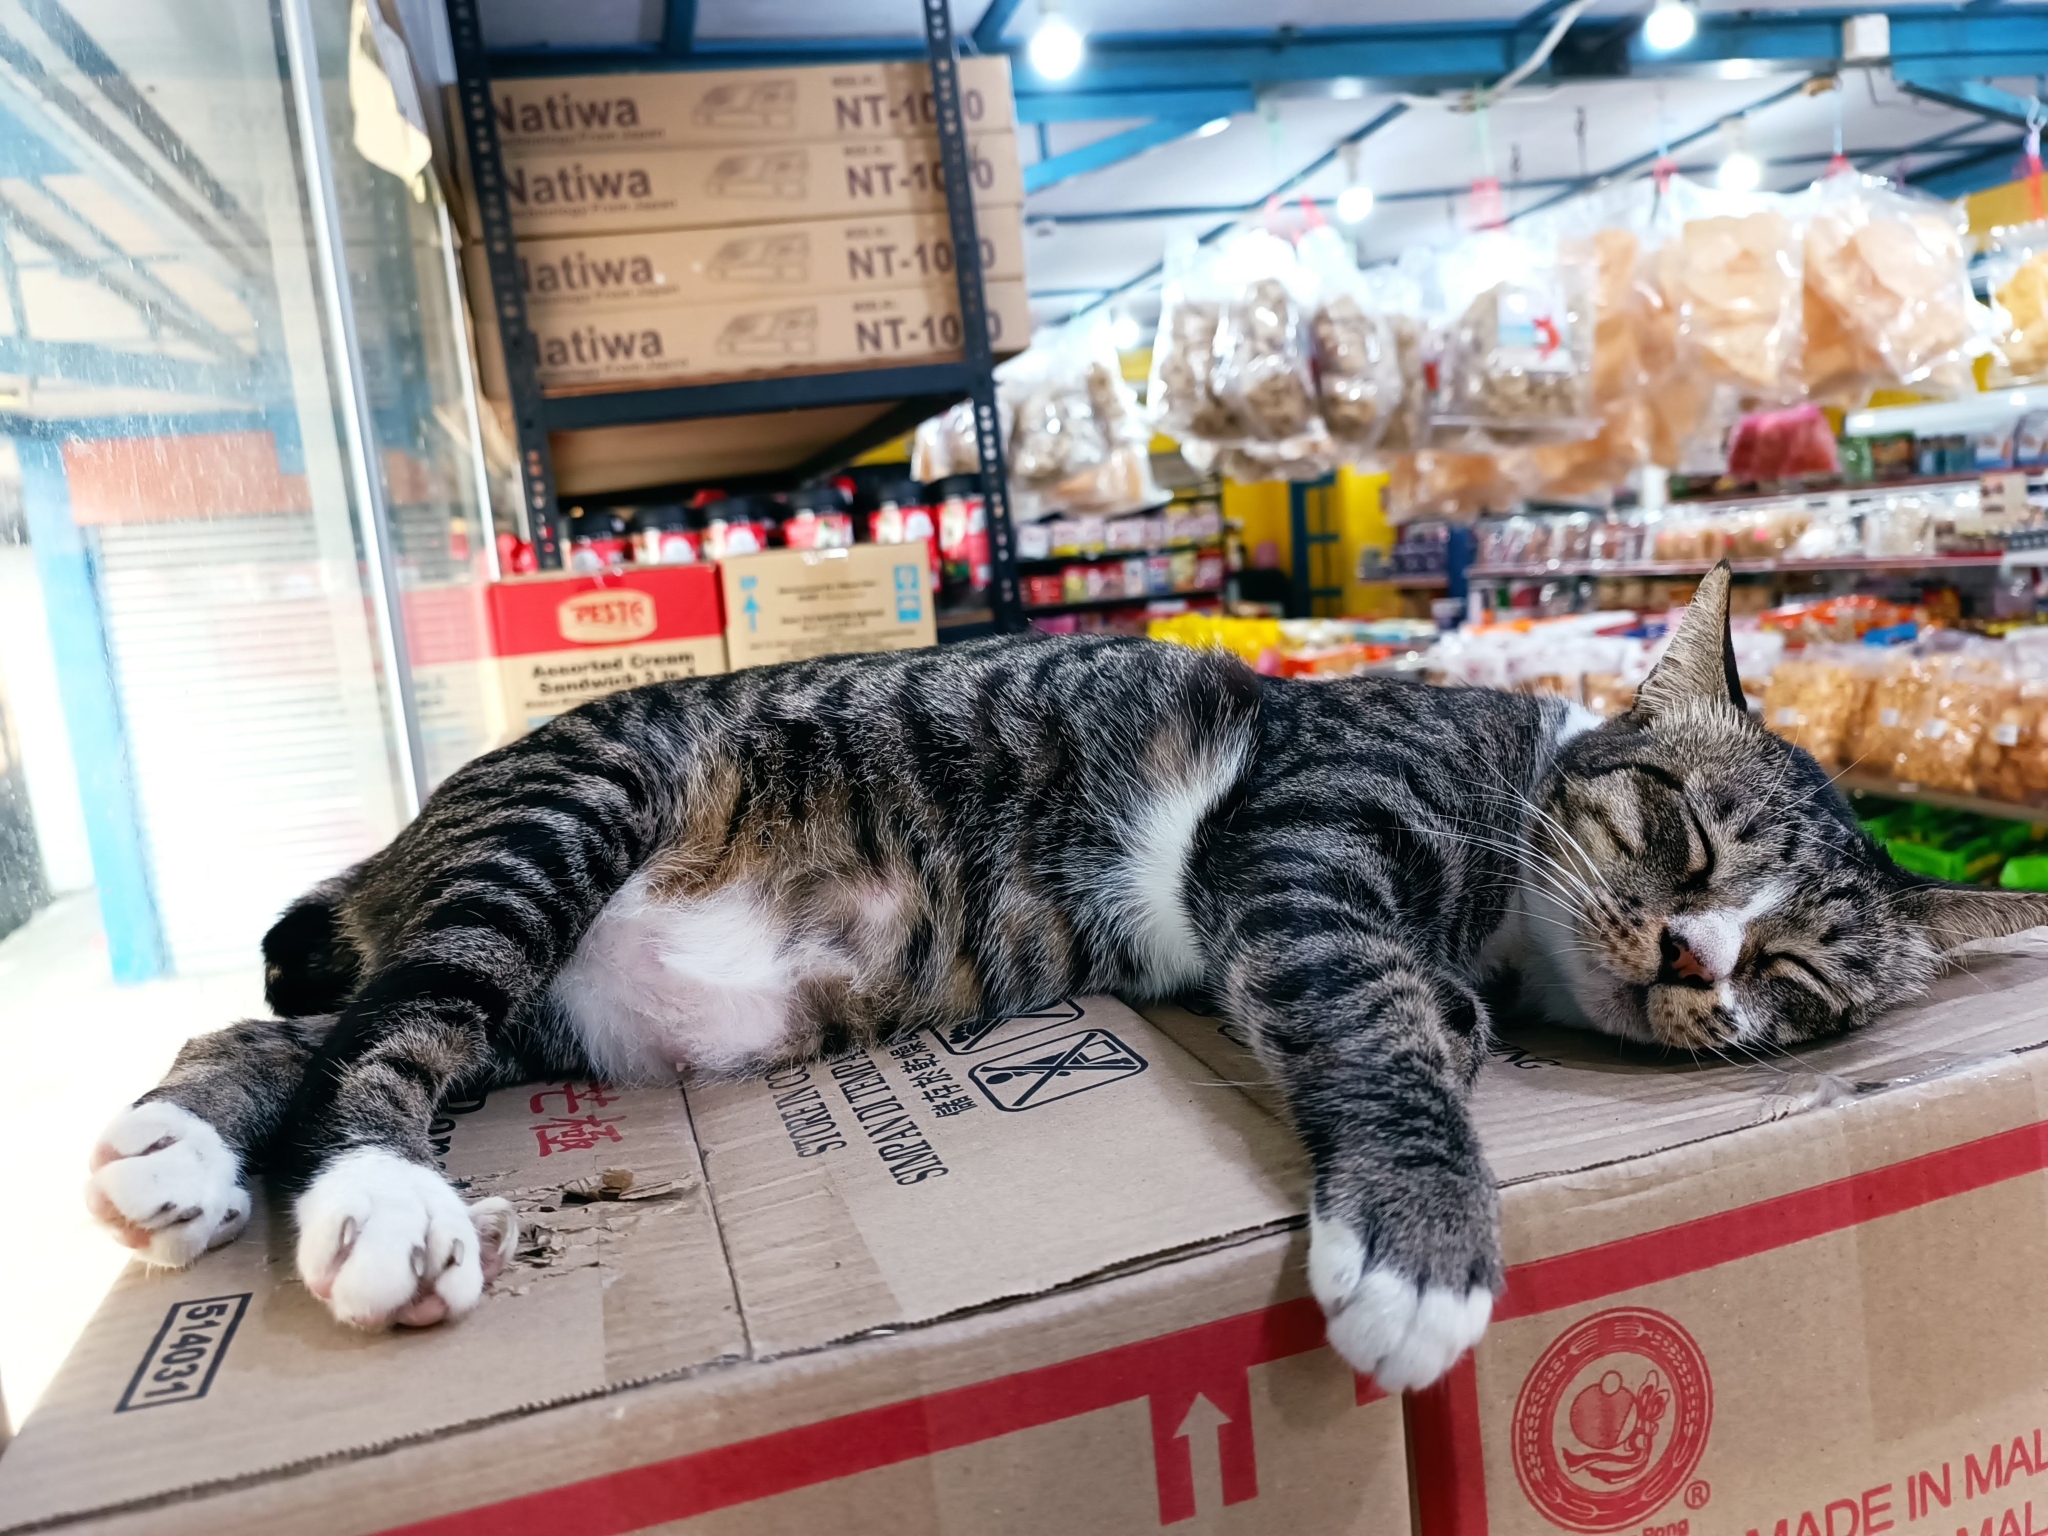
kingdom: Animalia
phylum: Chordata
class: Mammalia
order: Carnivora
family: Felidae
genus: Felis
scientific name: Felis catus
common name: Domestic cat
